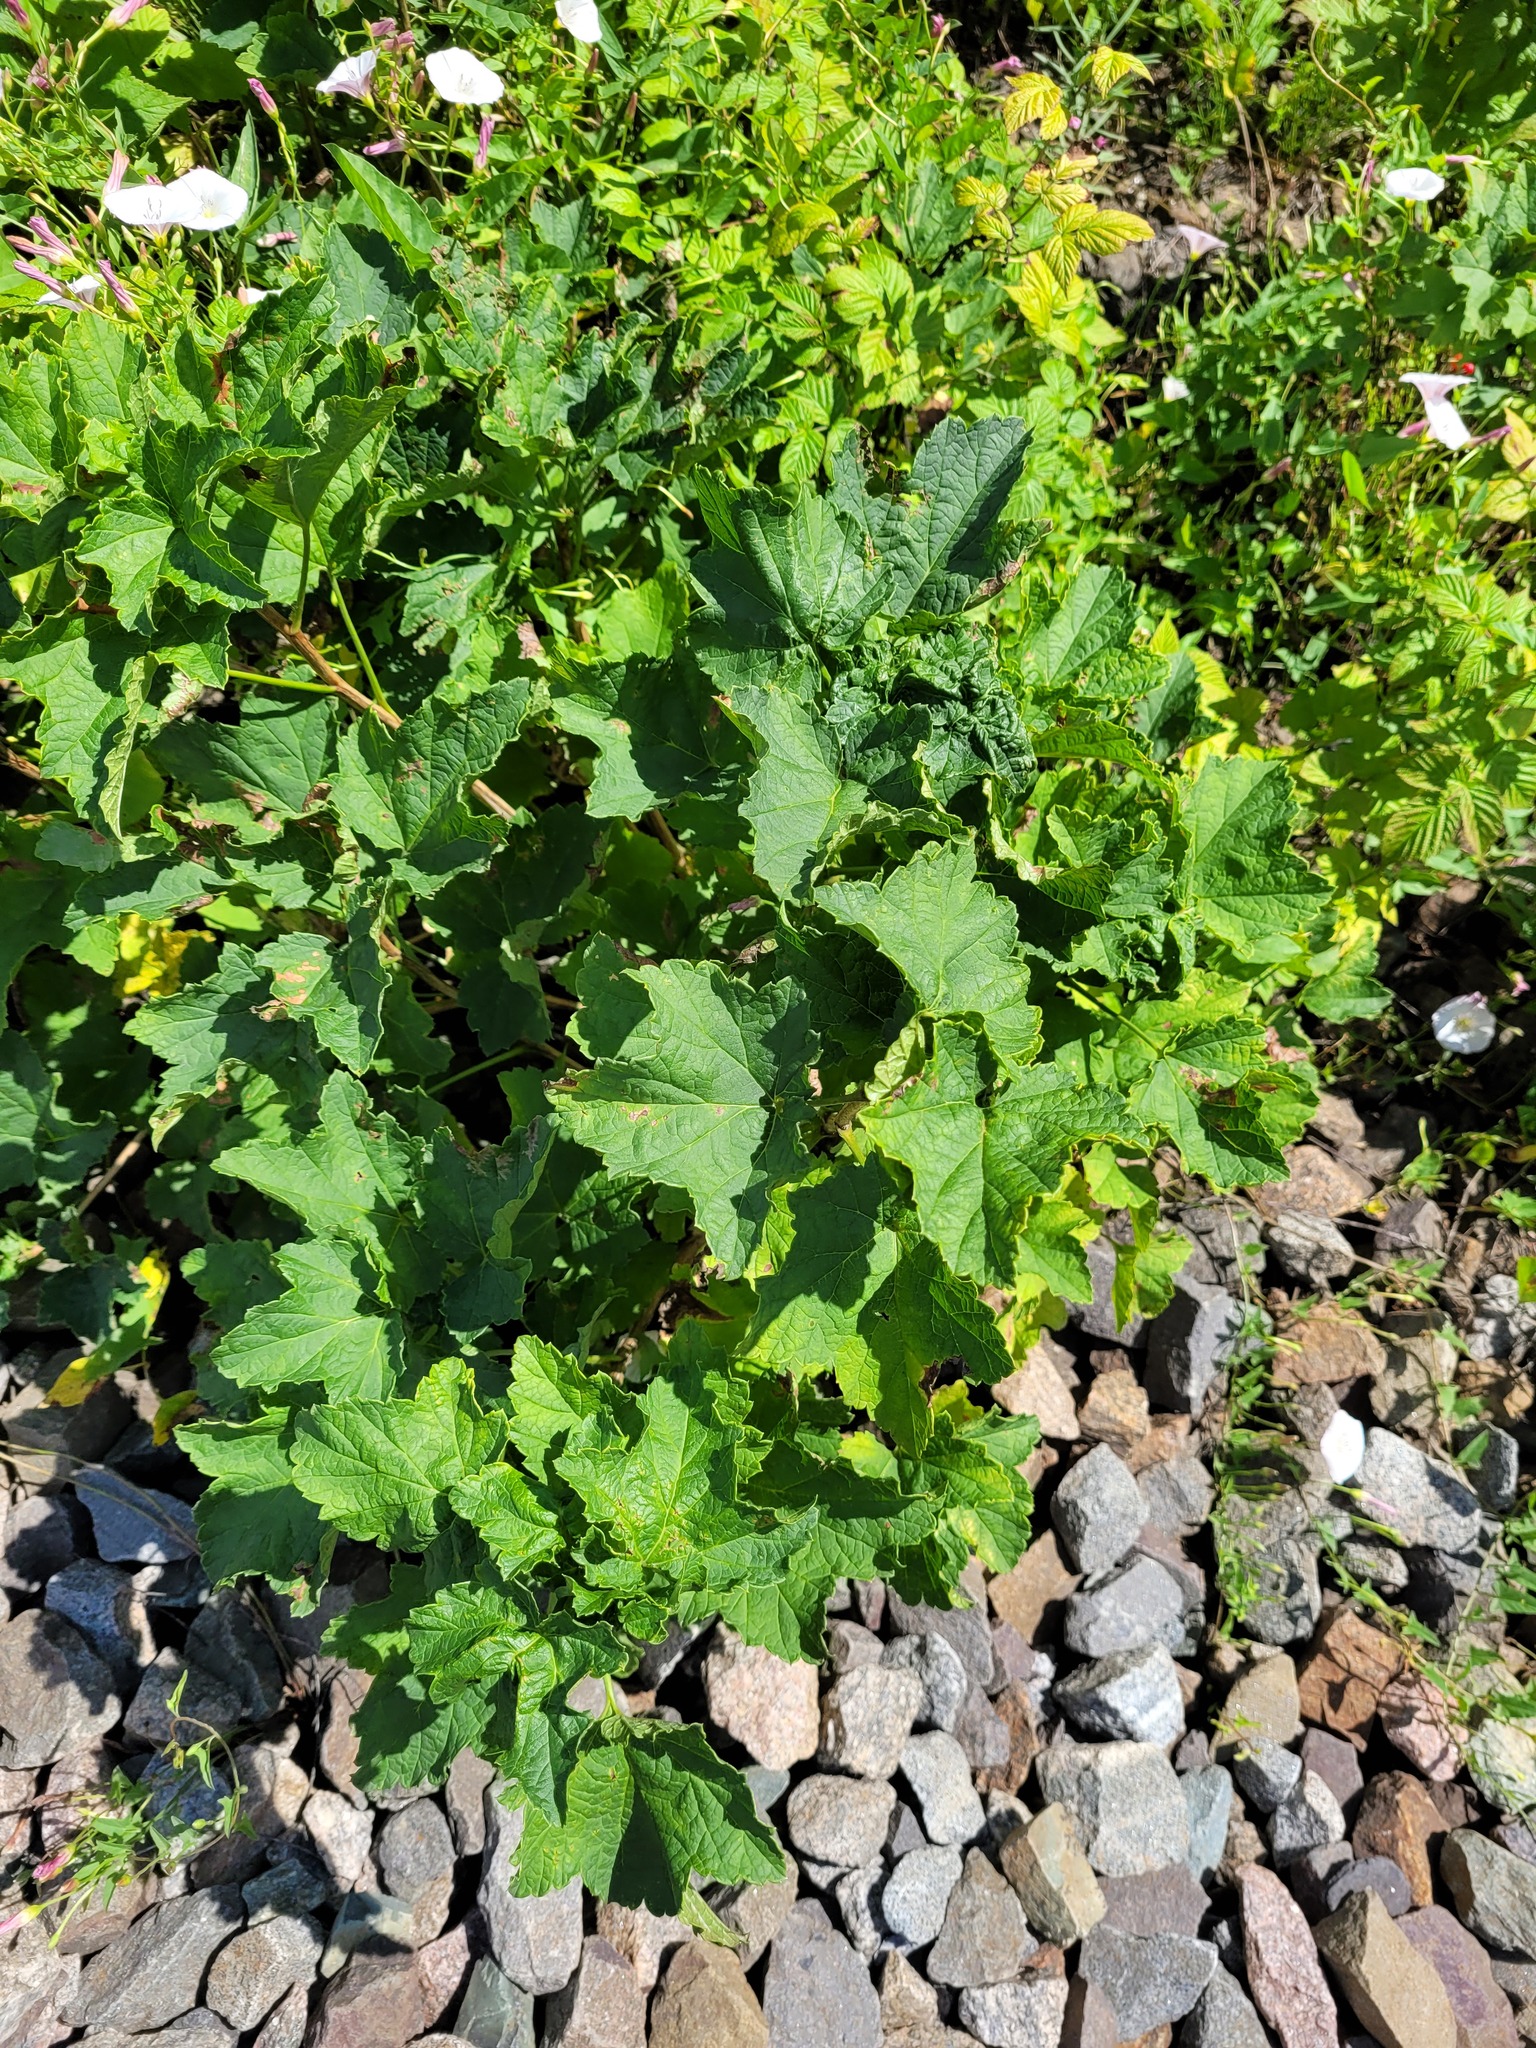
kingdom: Plantae
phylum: Tracheophyta
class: Magnoliopsida
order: Saxifragales
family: Grossulariaceae
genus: Ribes
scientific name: Ribes rubrum
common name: Red currant
